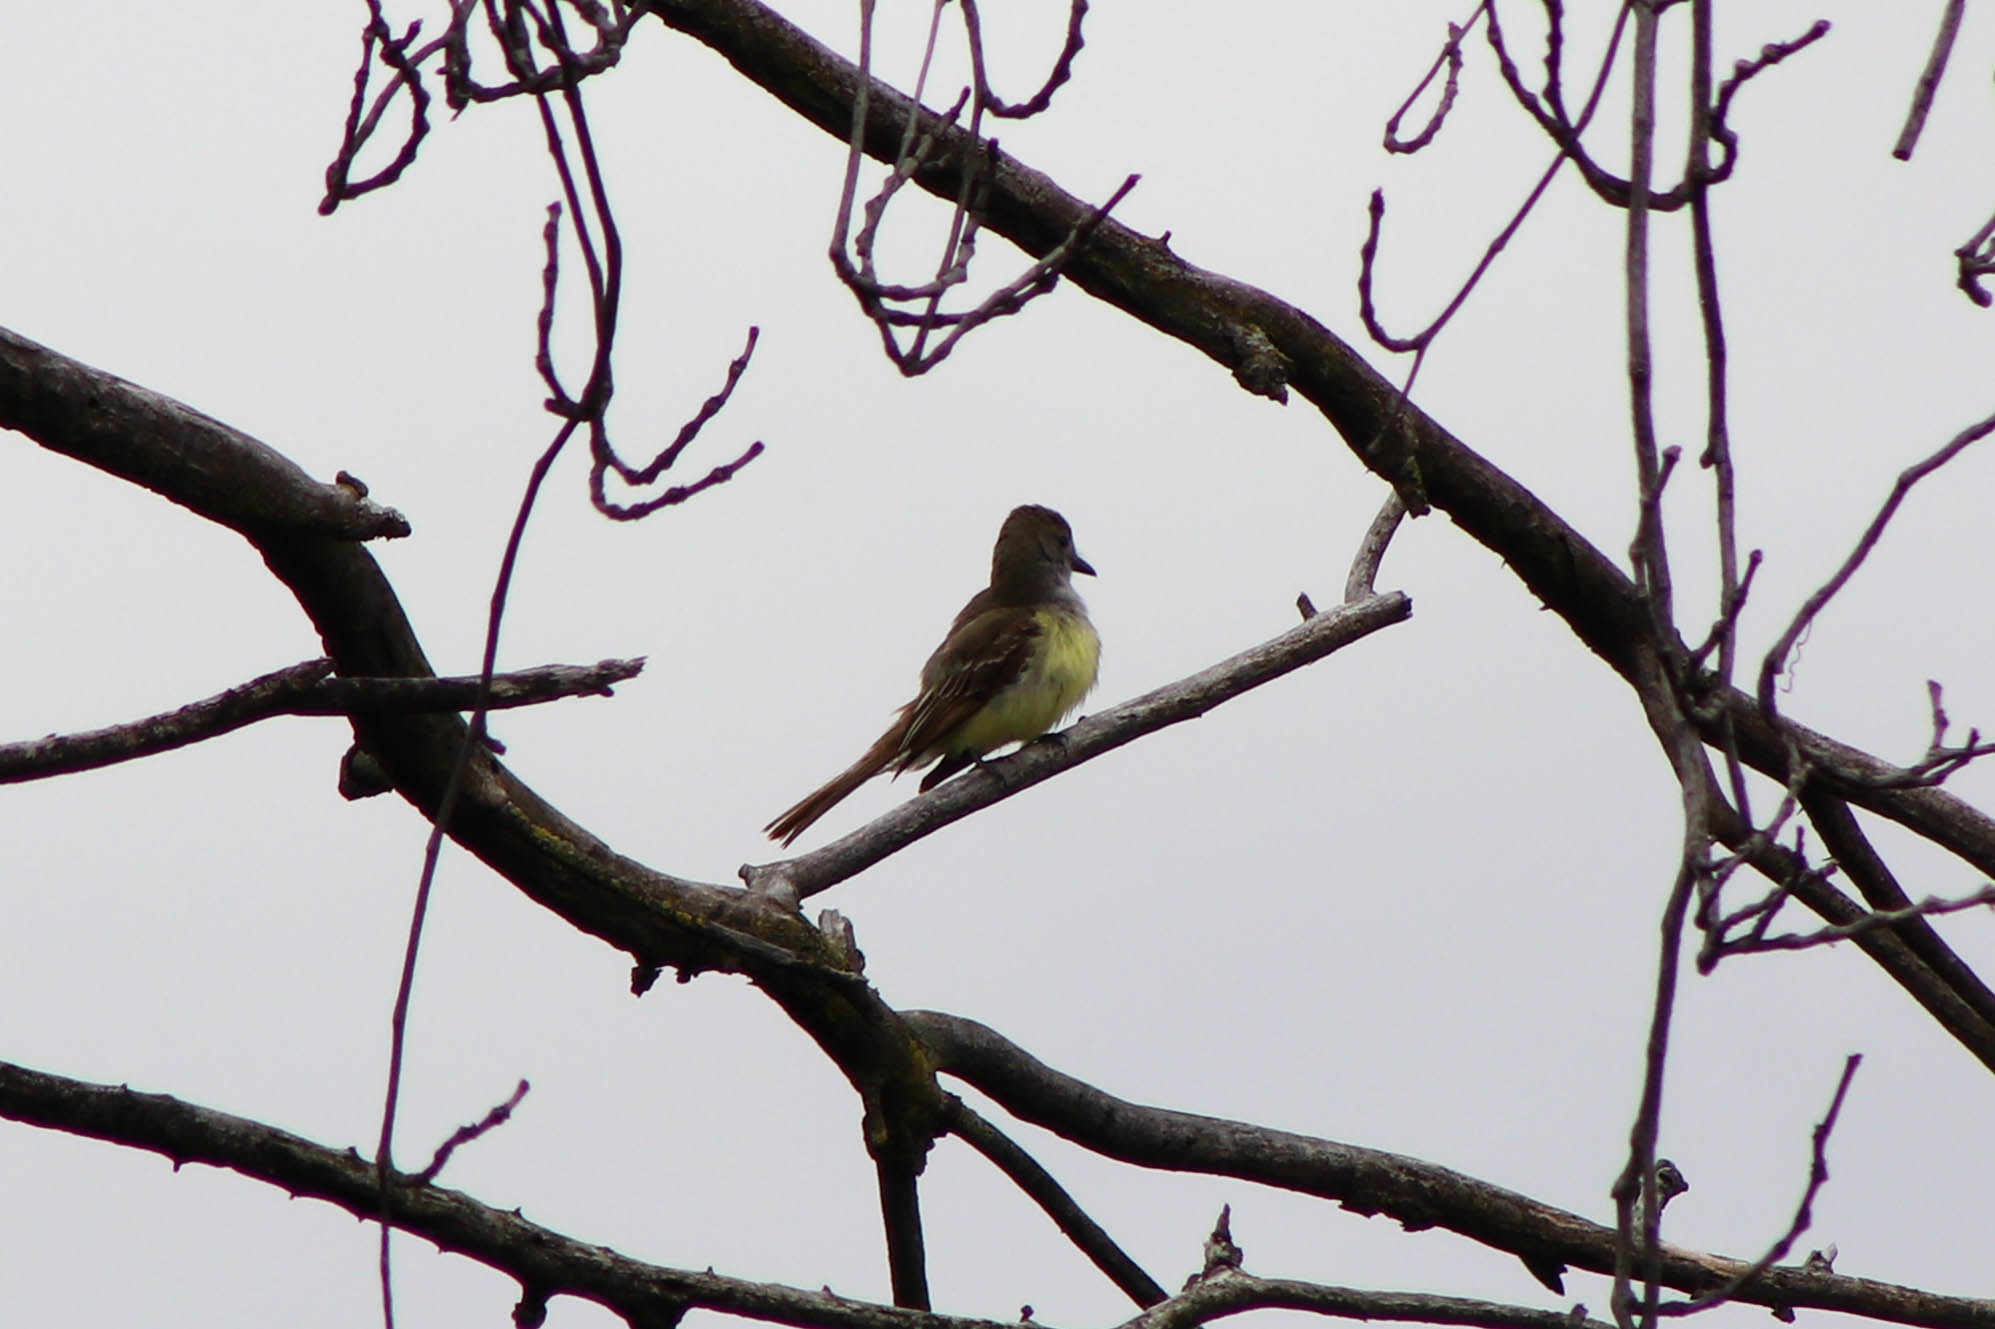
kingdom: Animalia
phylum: Chordata
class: Aves
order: Passeriformes
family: Tyrannidae
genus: Myiarchus
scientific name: Myiarchus crinitus
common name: Great crested flycatcher
